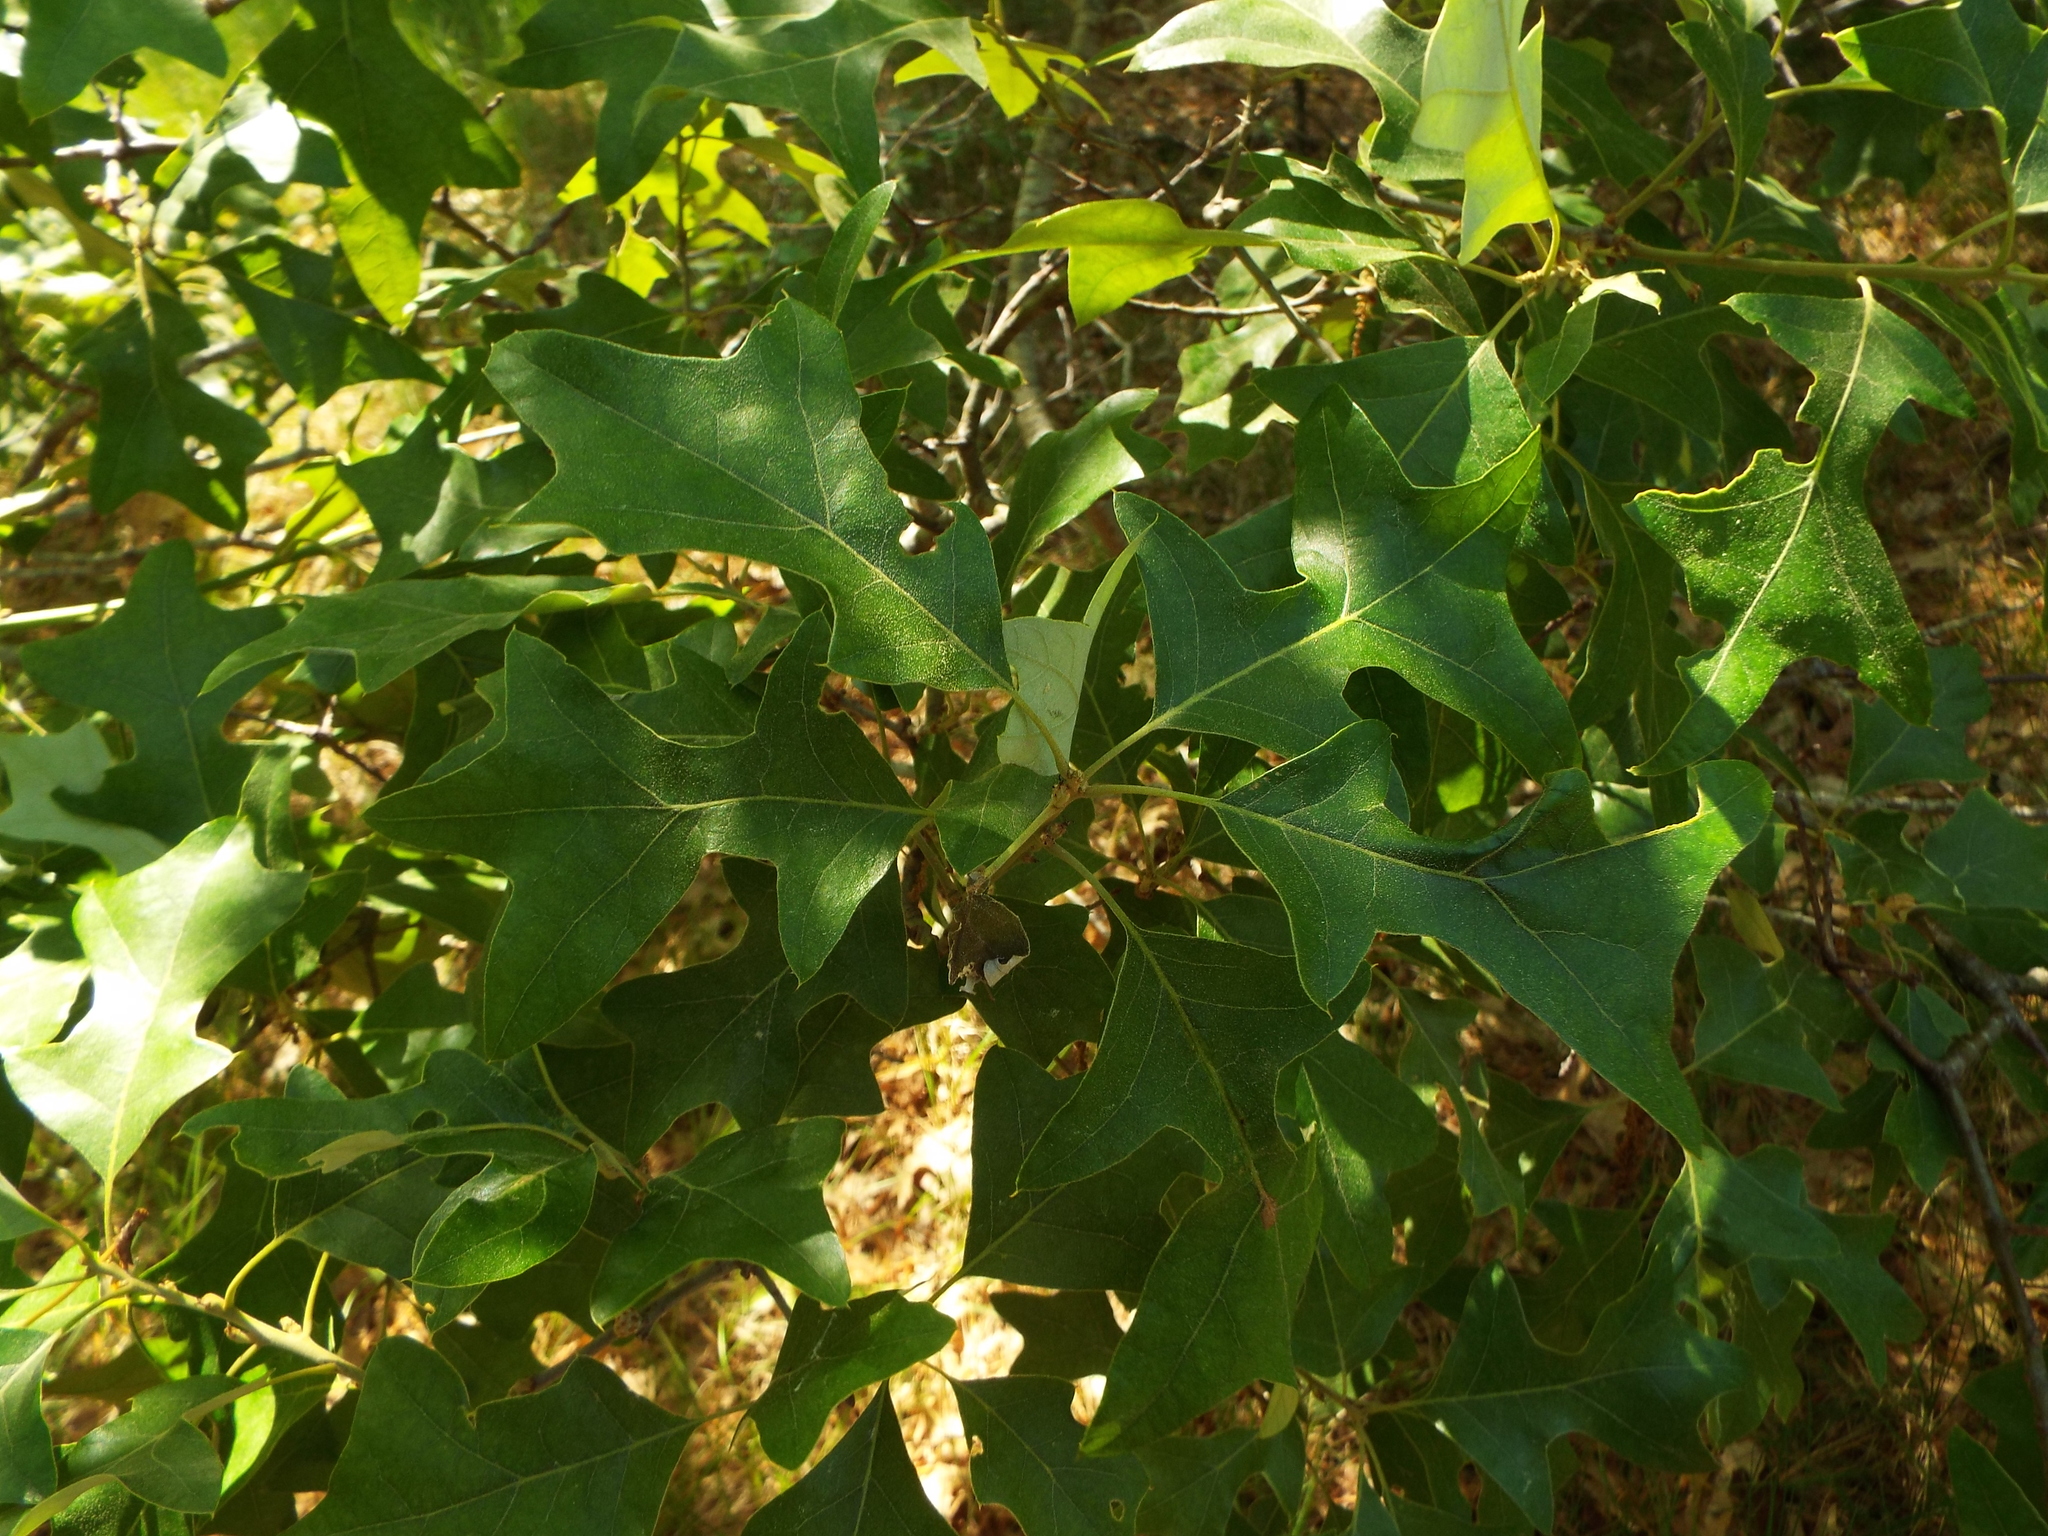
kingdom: Plantae
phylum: Tracheophyta
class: Magnoliopsida
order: Fagales
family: Fagaceae
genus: Quercus
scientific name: Quercus ilicifolia
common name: Bear oak
